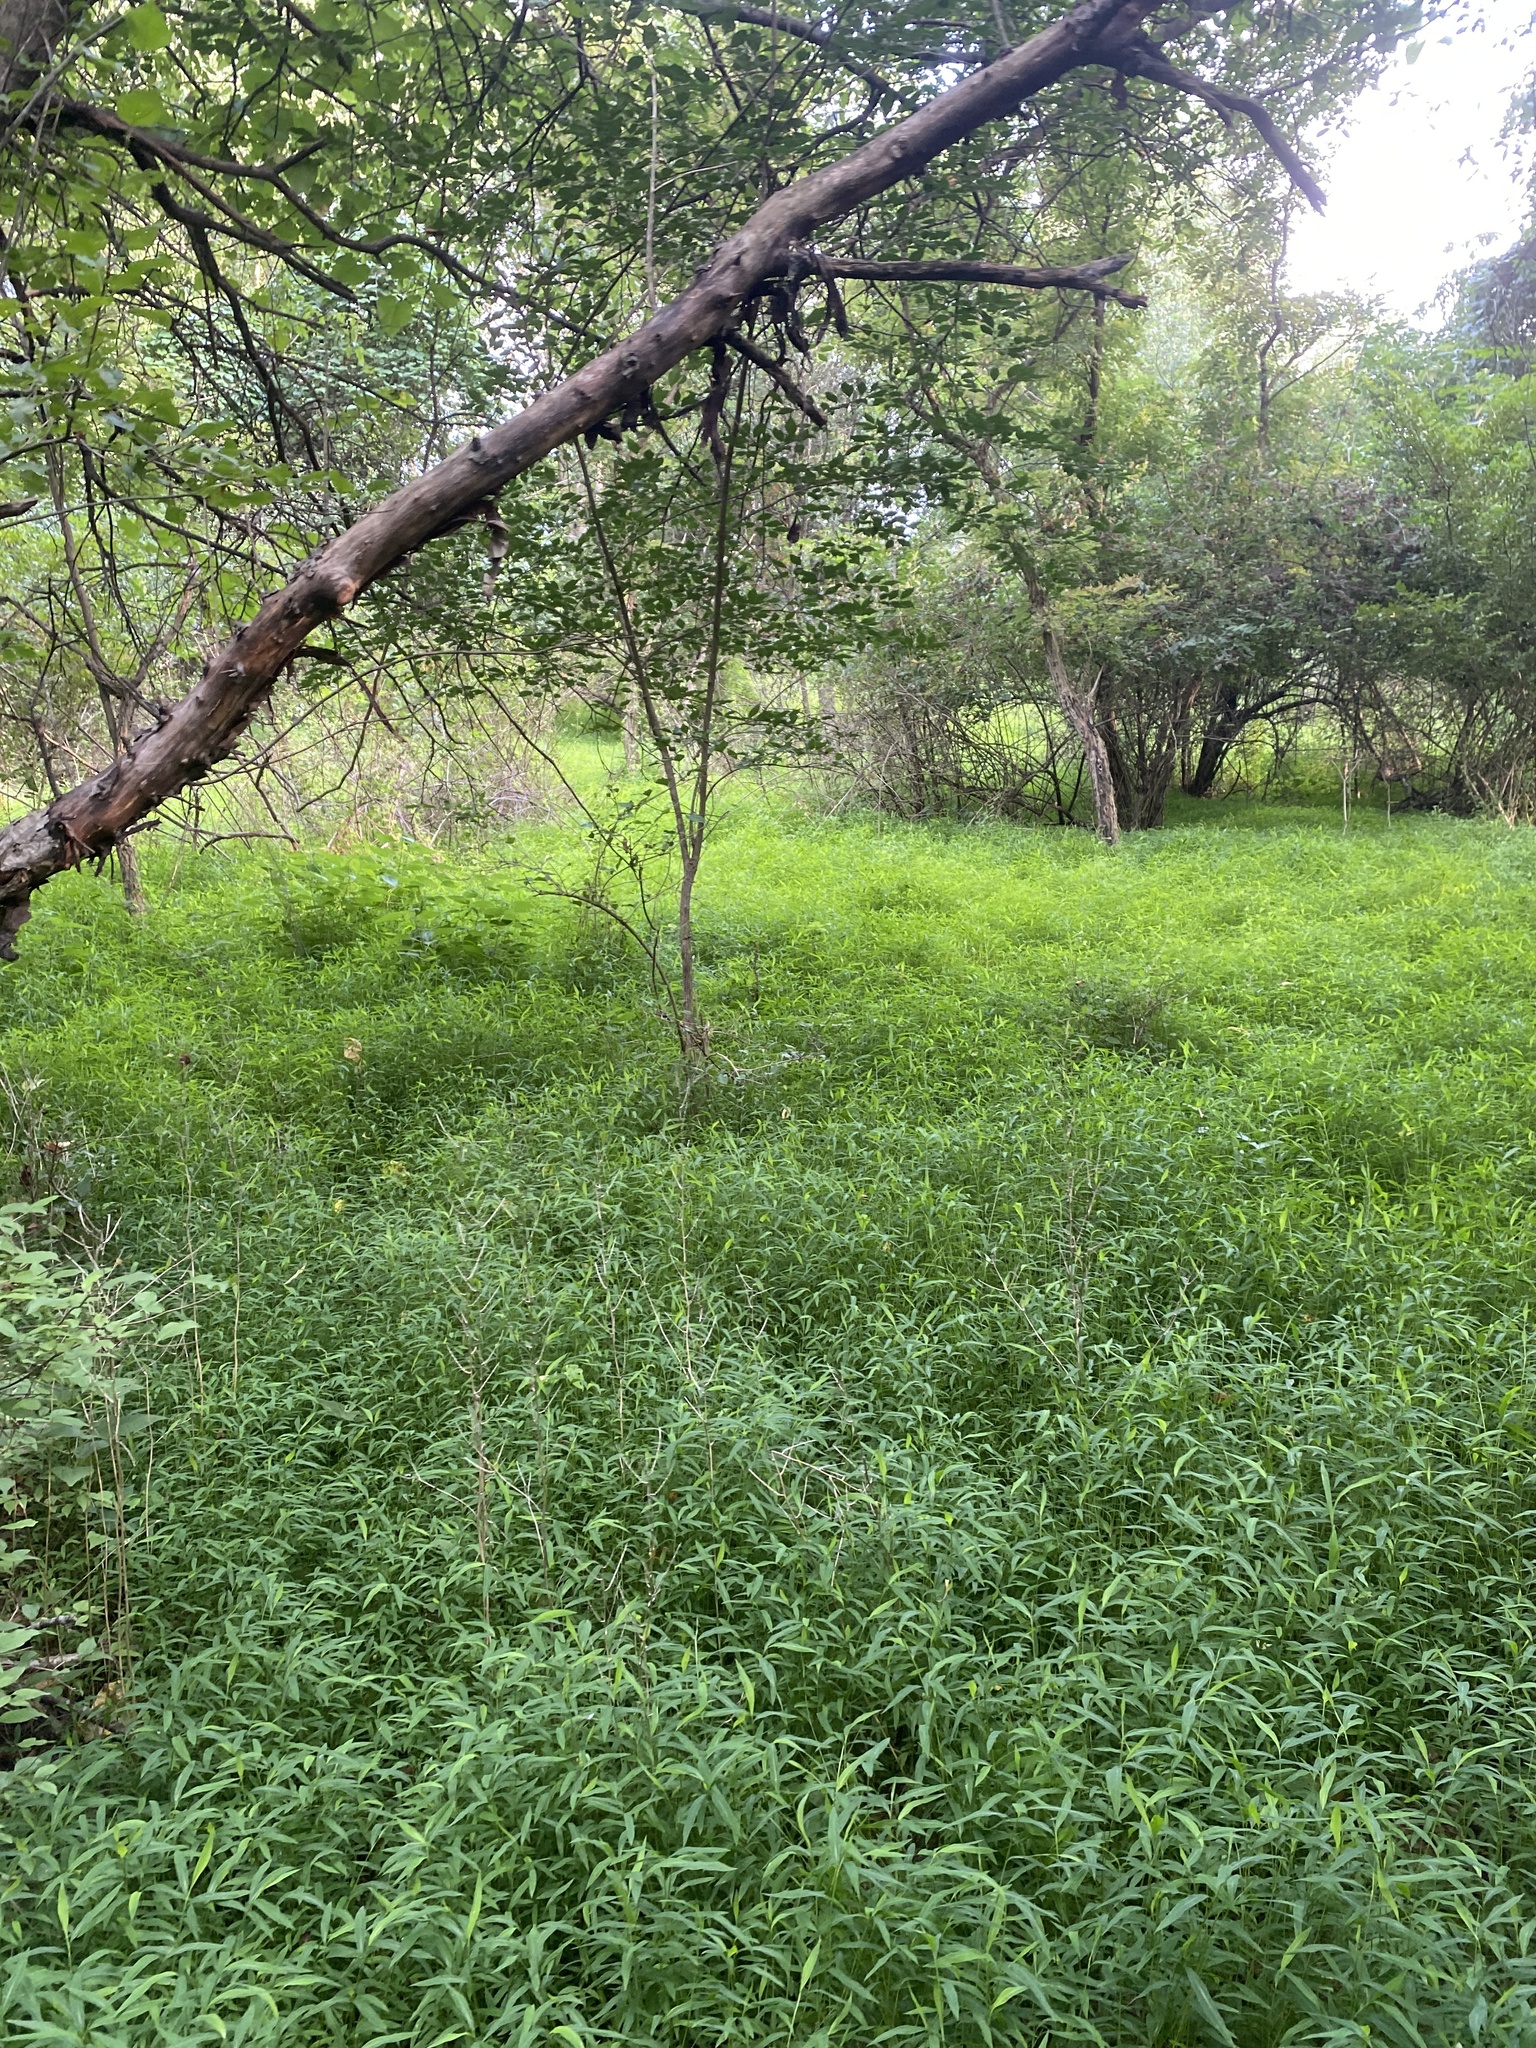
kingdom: Plantae
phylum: Tracheophyta
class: Liliopsida
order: Poales
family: Poaceae
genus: Microstegium
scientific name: Microstegium vimineum
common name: Japanese stiltgrass
